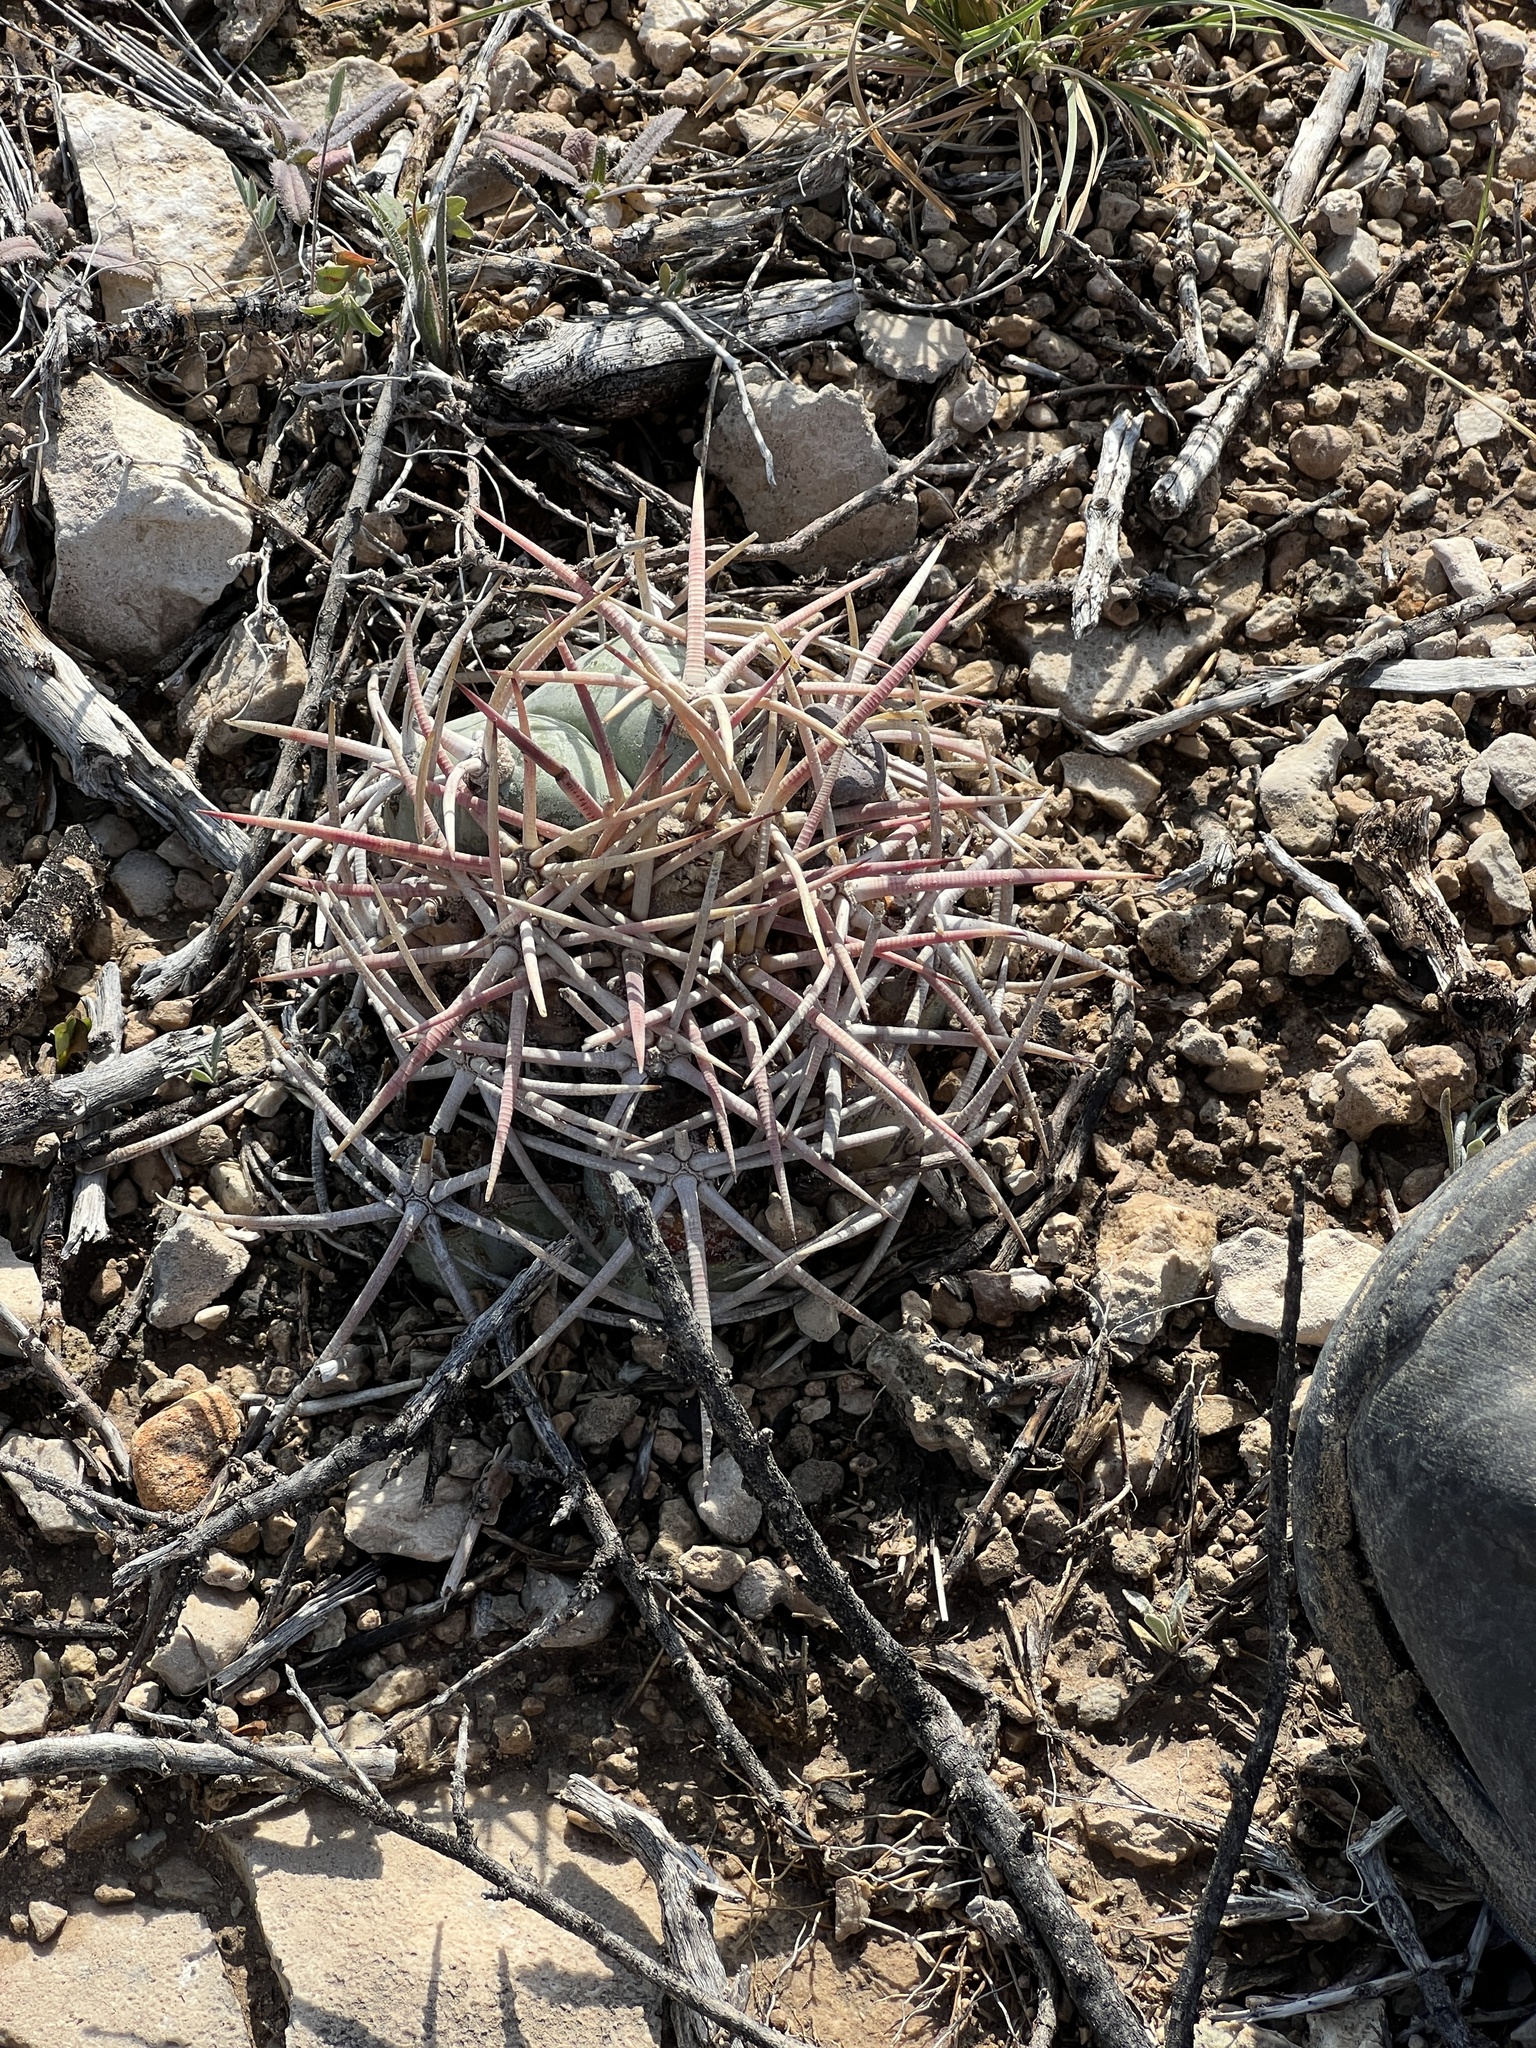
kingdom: Plantae
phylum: Tracheophyta
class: Magnoliopsida
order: Caryophyllales
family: Cactaceae
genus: Echinocactus
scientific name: Echinocactus horizonthalonius
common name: Devilshead
